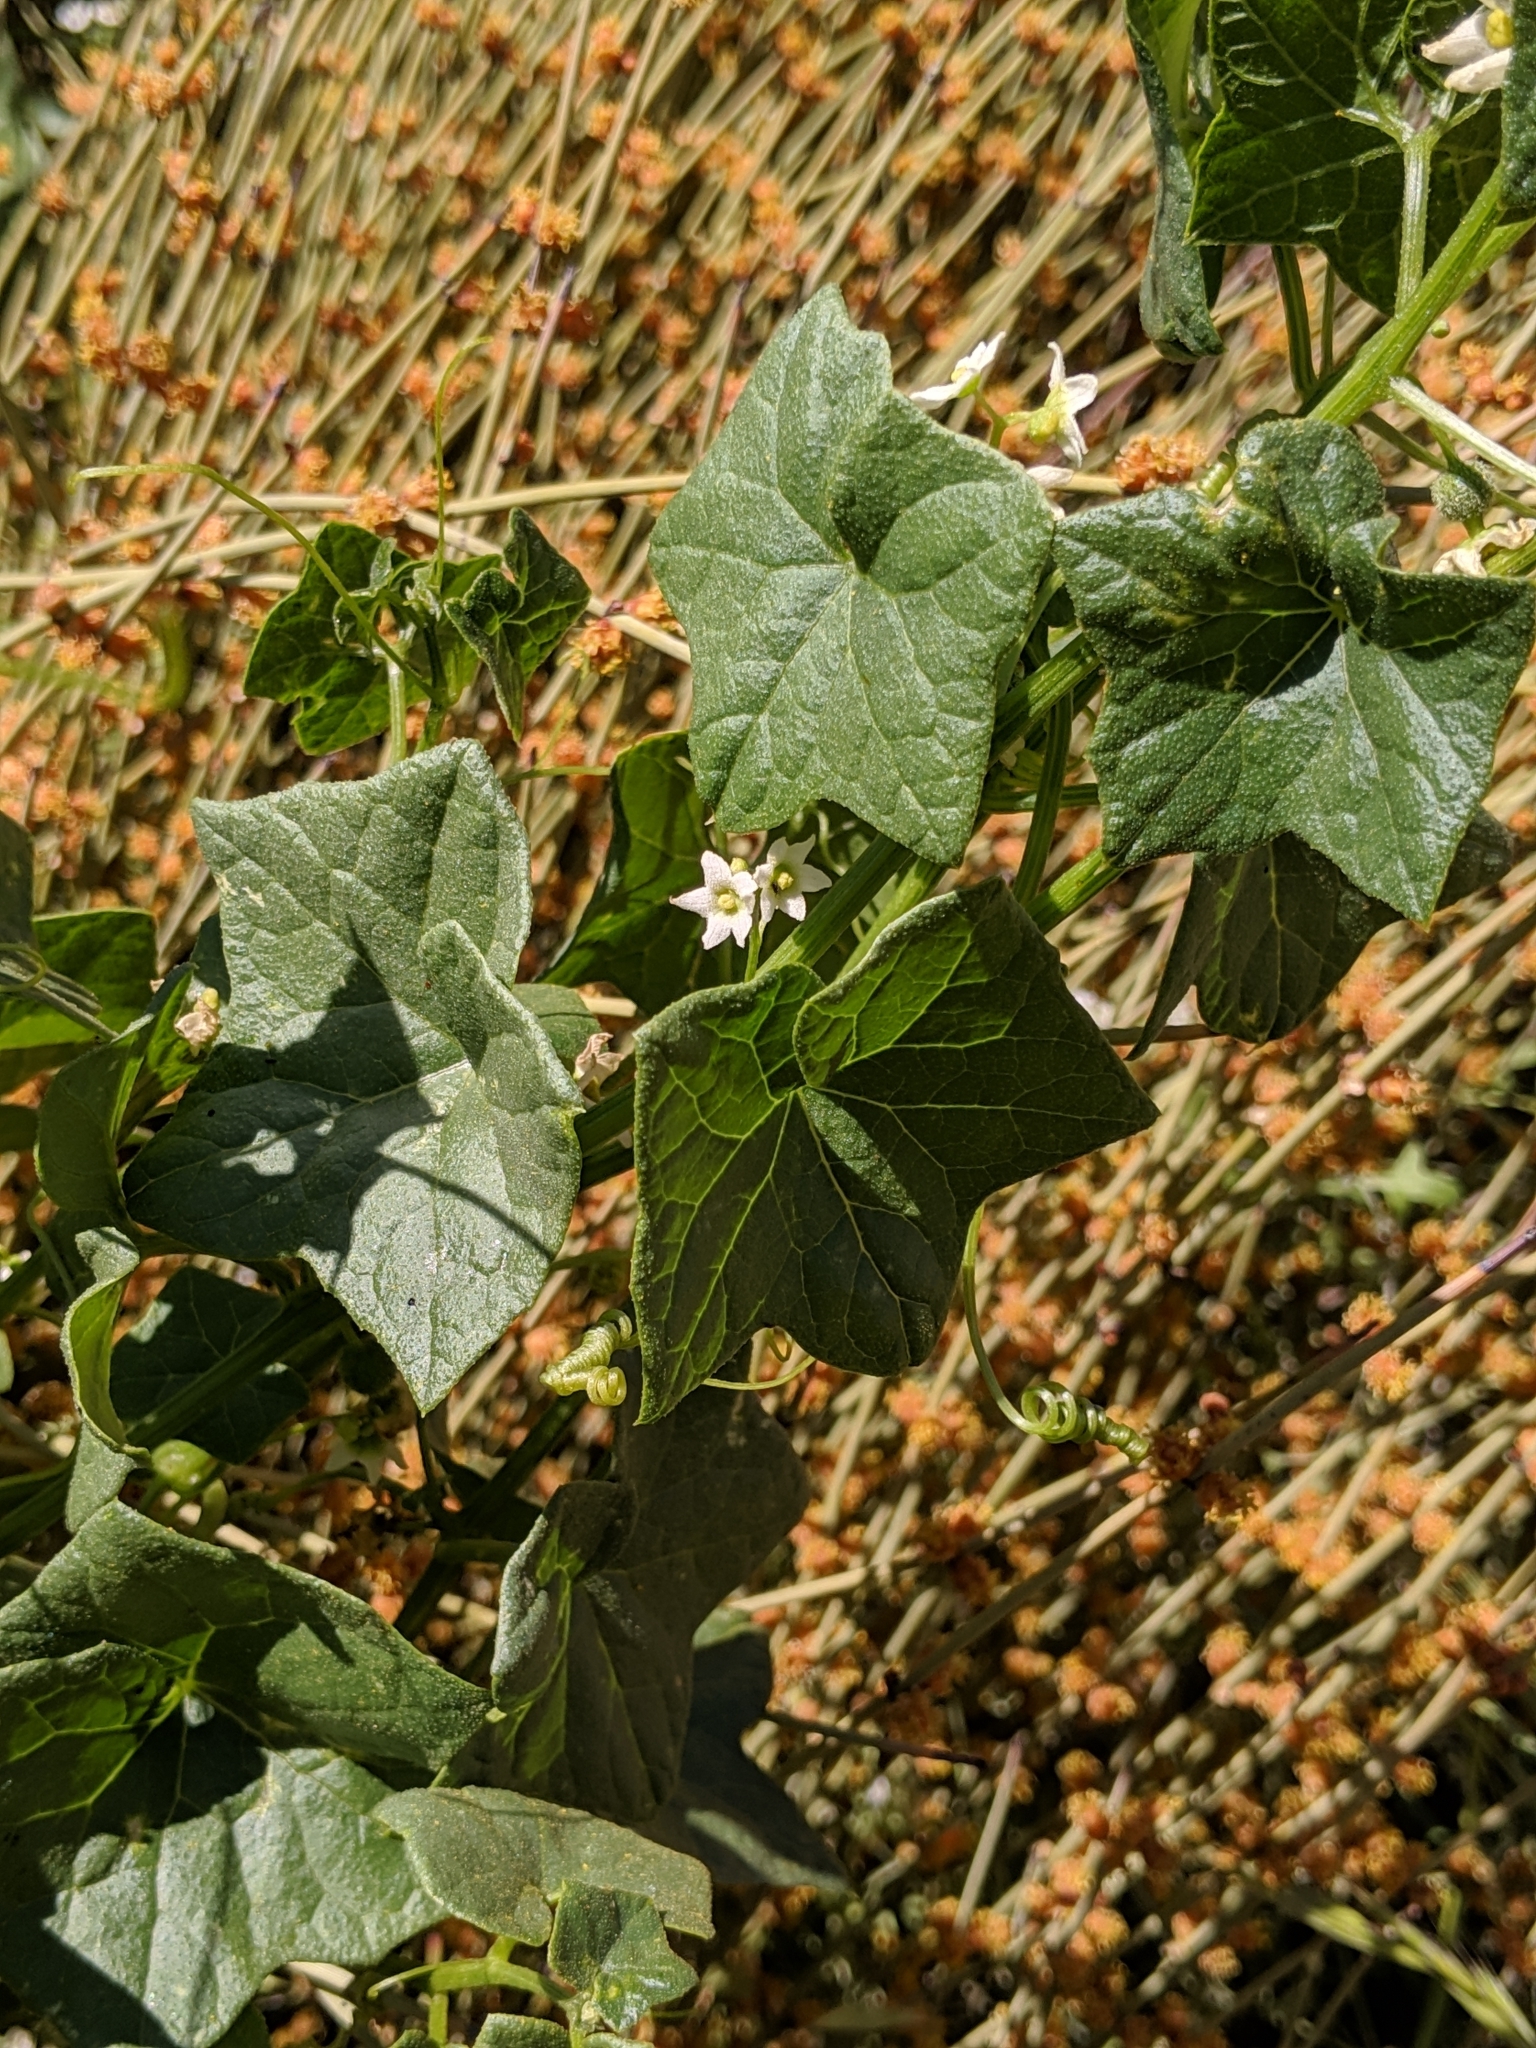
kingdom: Plantae
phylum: Tracheophyta
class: Magnoliopsida
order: Cucurbitales
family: Cucurbitaceae
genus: Marah
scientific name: Marah fabacea
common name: California manroot
